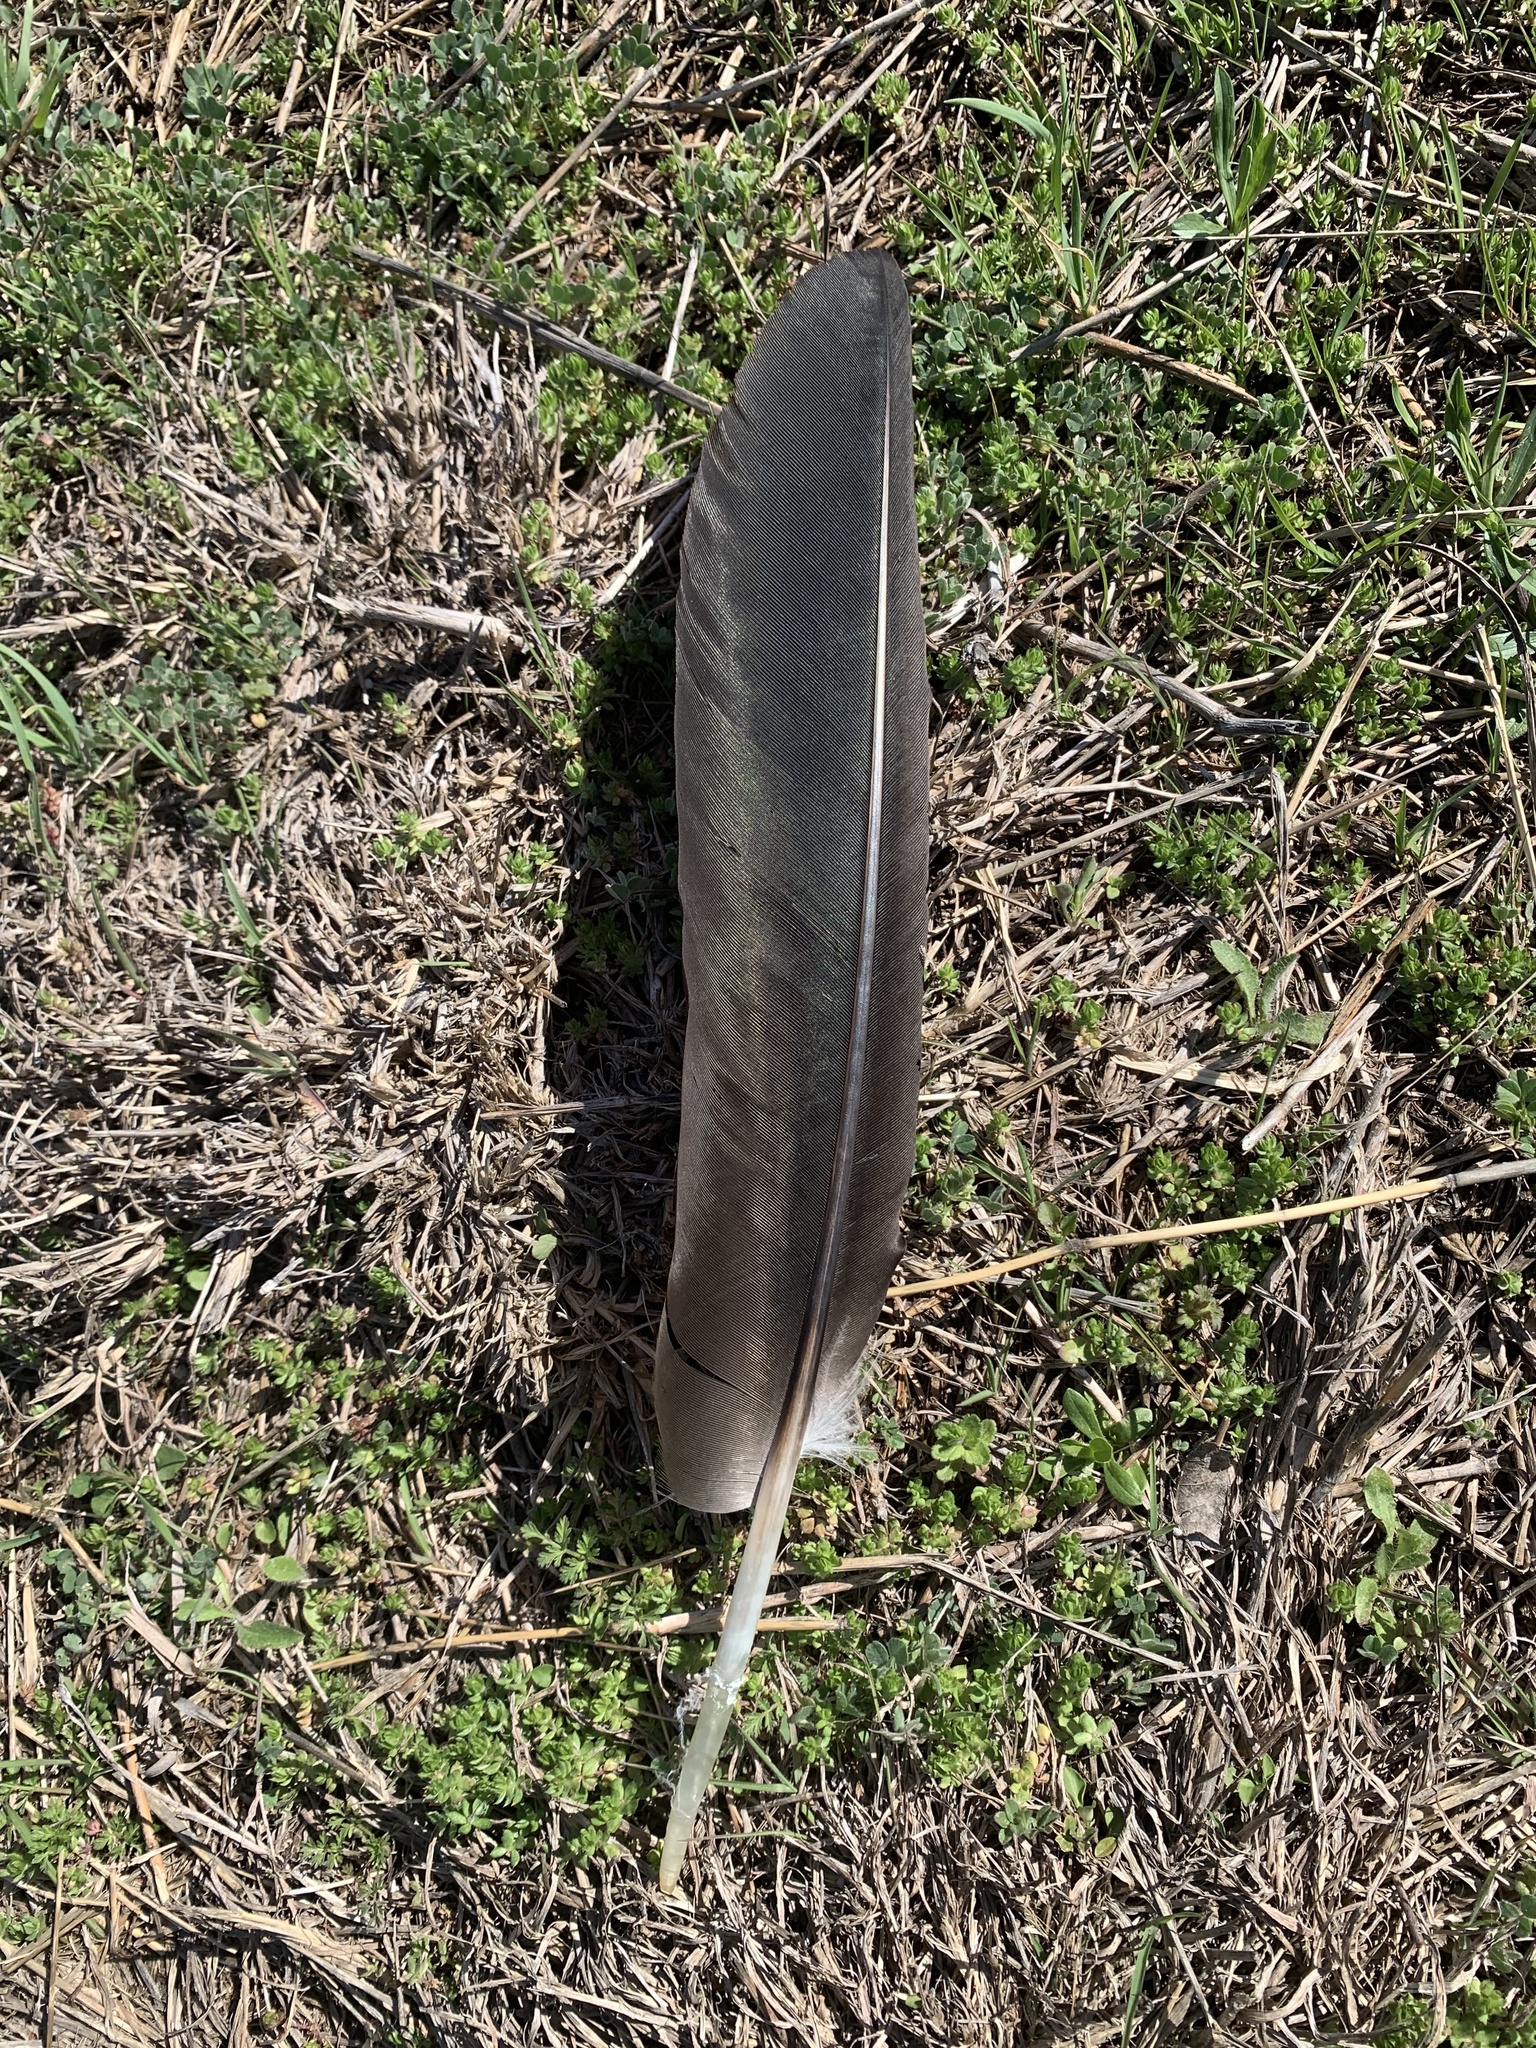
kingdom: Animalia
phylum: Chordata
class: Aves
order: Accipitriformes
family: Cathartidae
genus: Coragyps
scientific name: Coragyps atratus
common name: Black vulture
